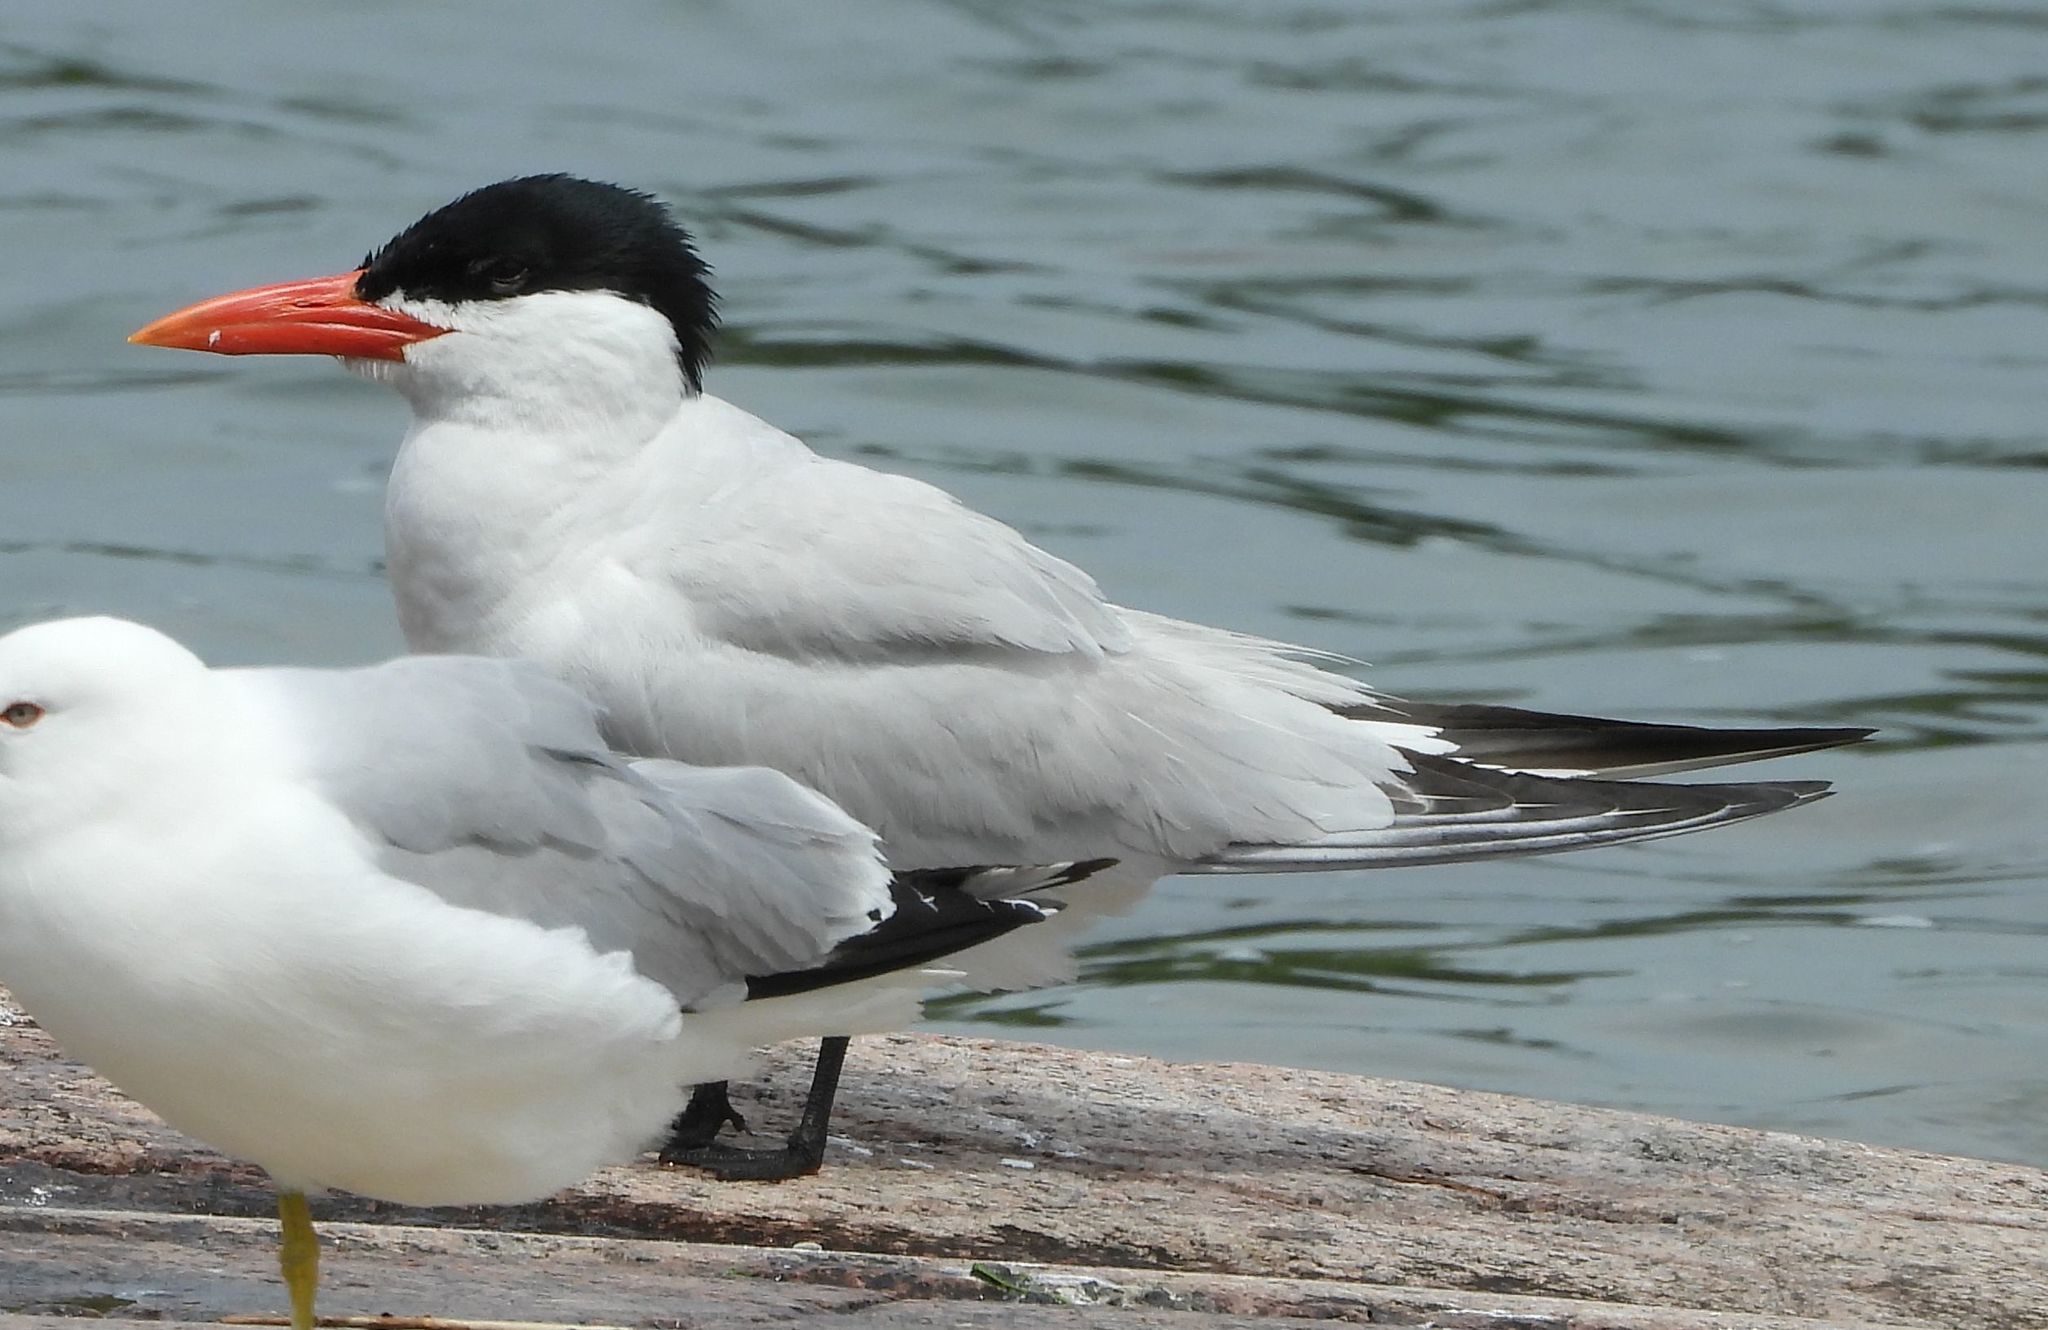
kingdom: Animalia
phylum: Chordata
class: Aves
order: Charadriiformes
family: Laridae
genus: Hydroprogne
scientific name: Hydroprogne caspia
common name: Caspian tern
